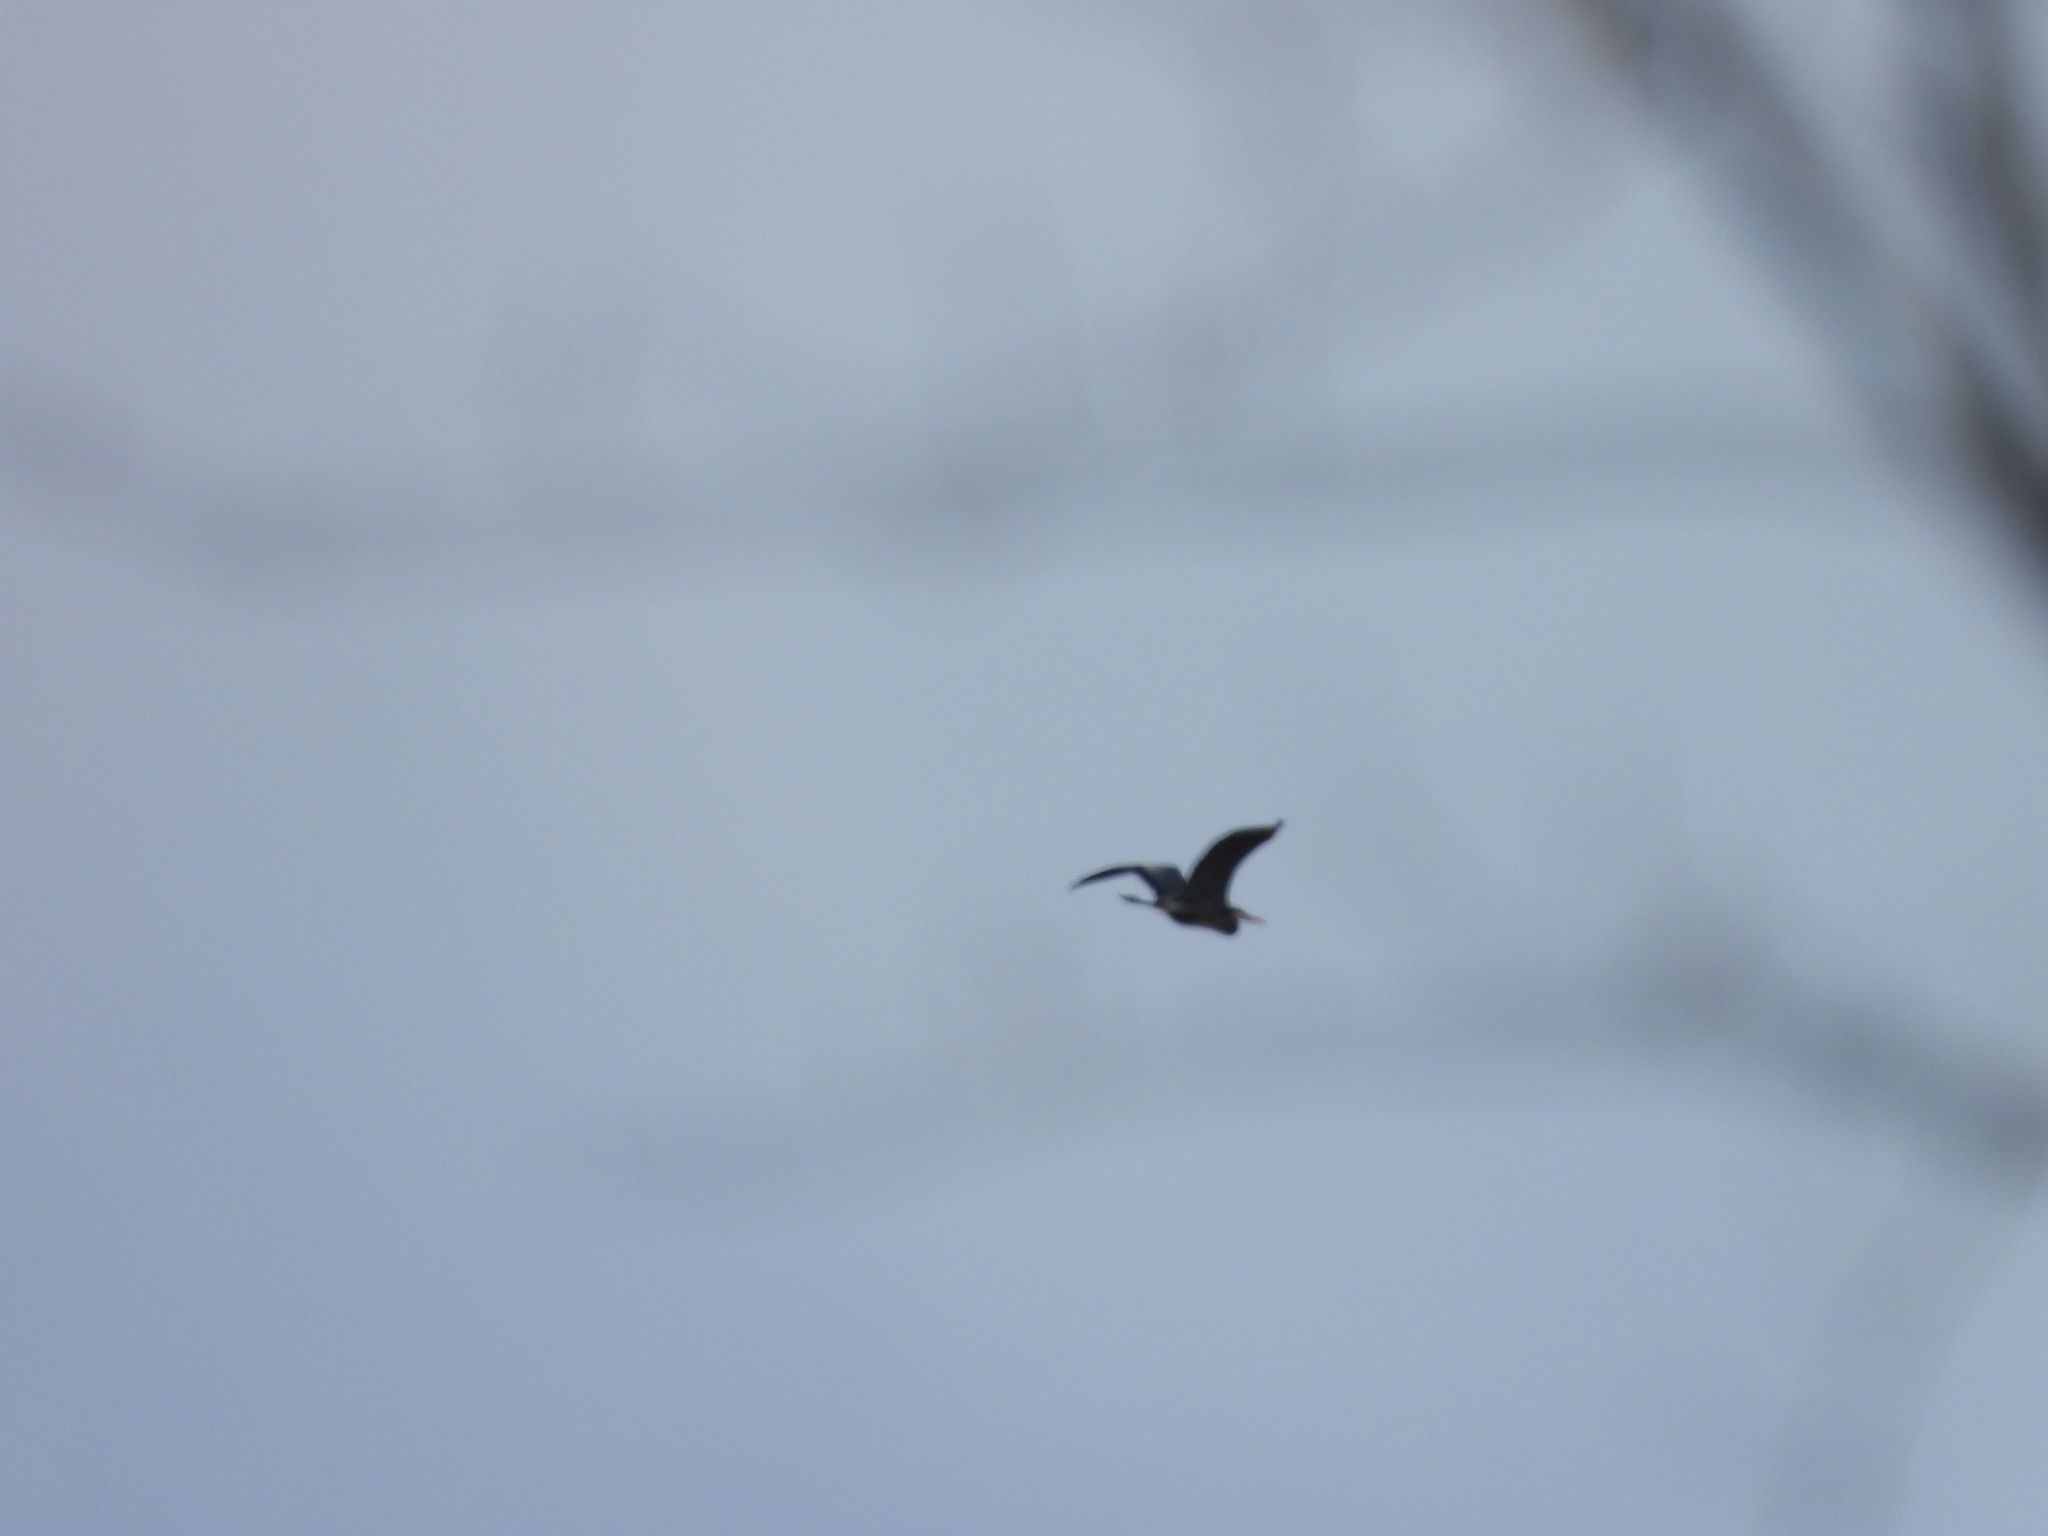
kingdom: Animalia
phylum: Chordata
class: Aves
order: Pelecaniformes
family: Ardeidae
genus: Ardea
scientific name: Ardea herodias
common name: Great blue heron
